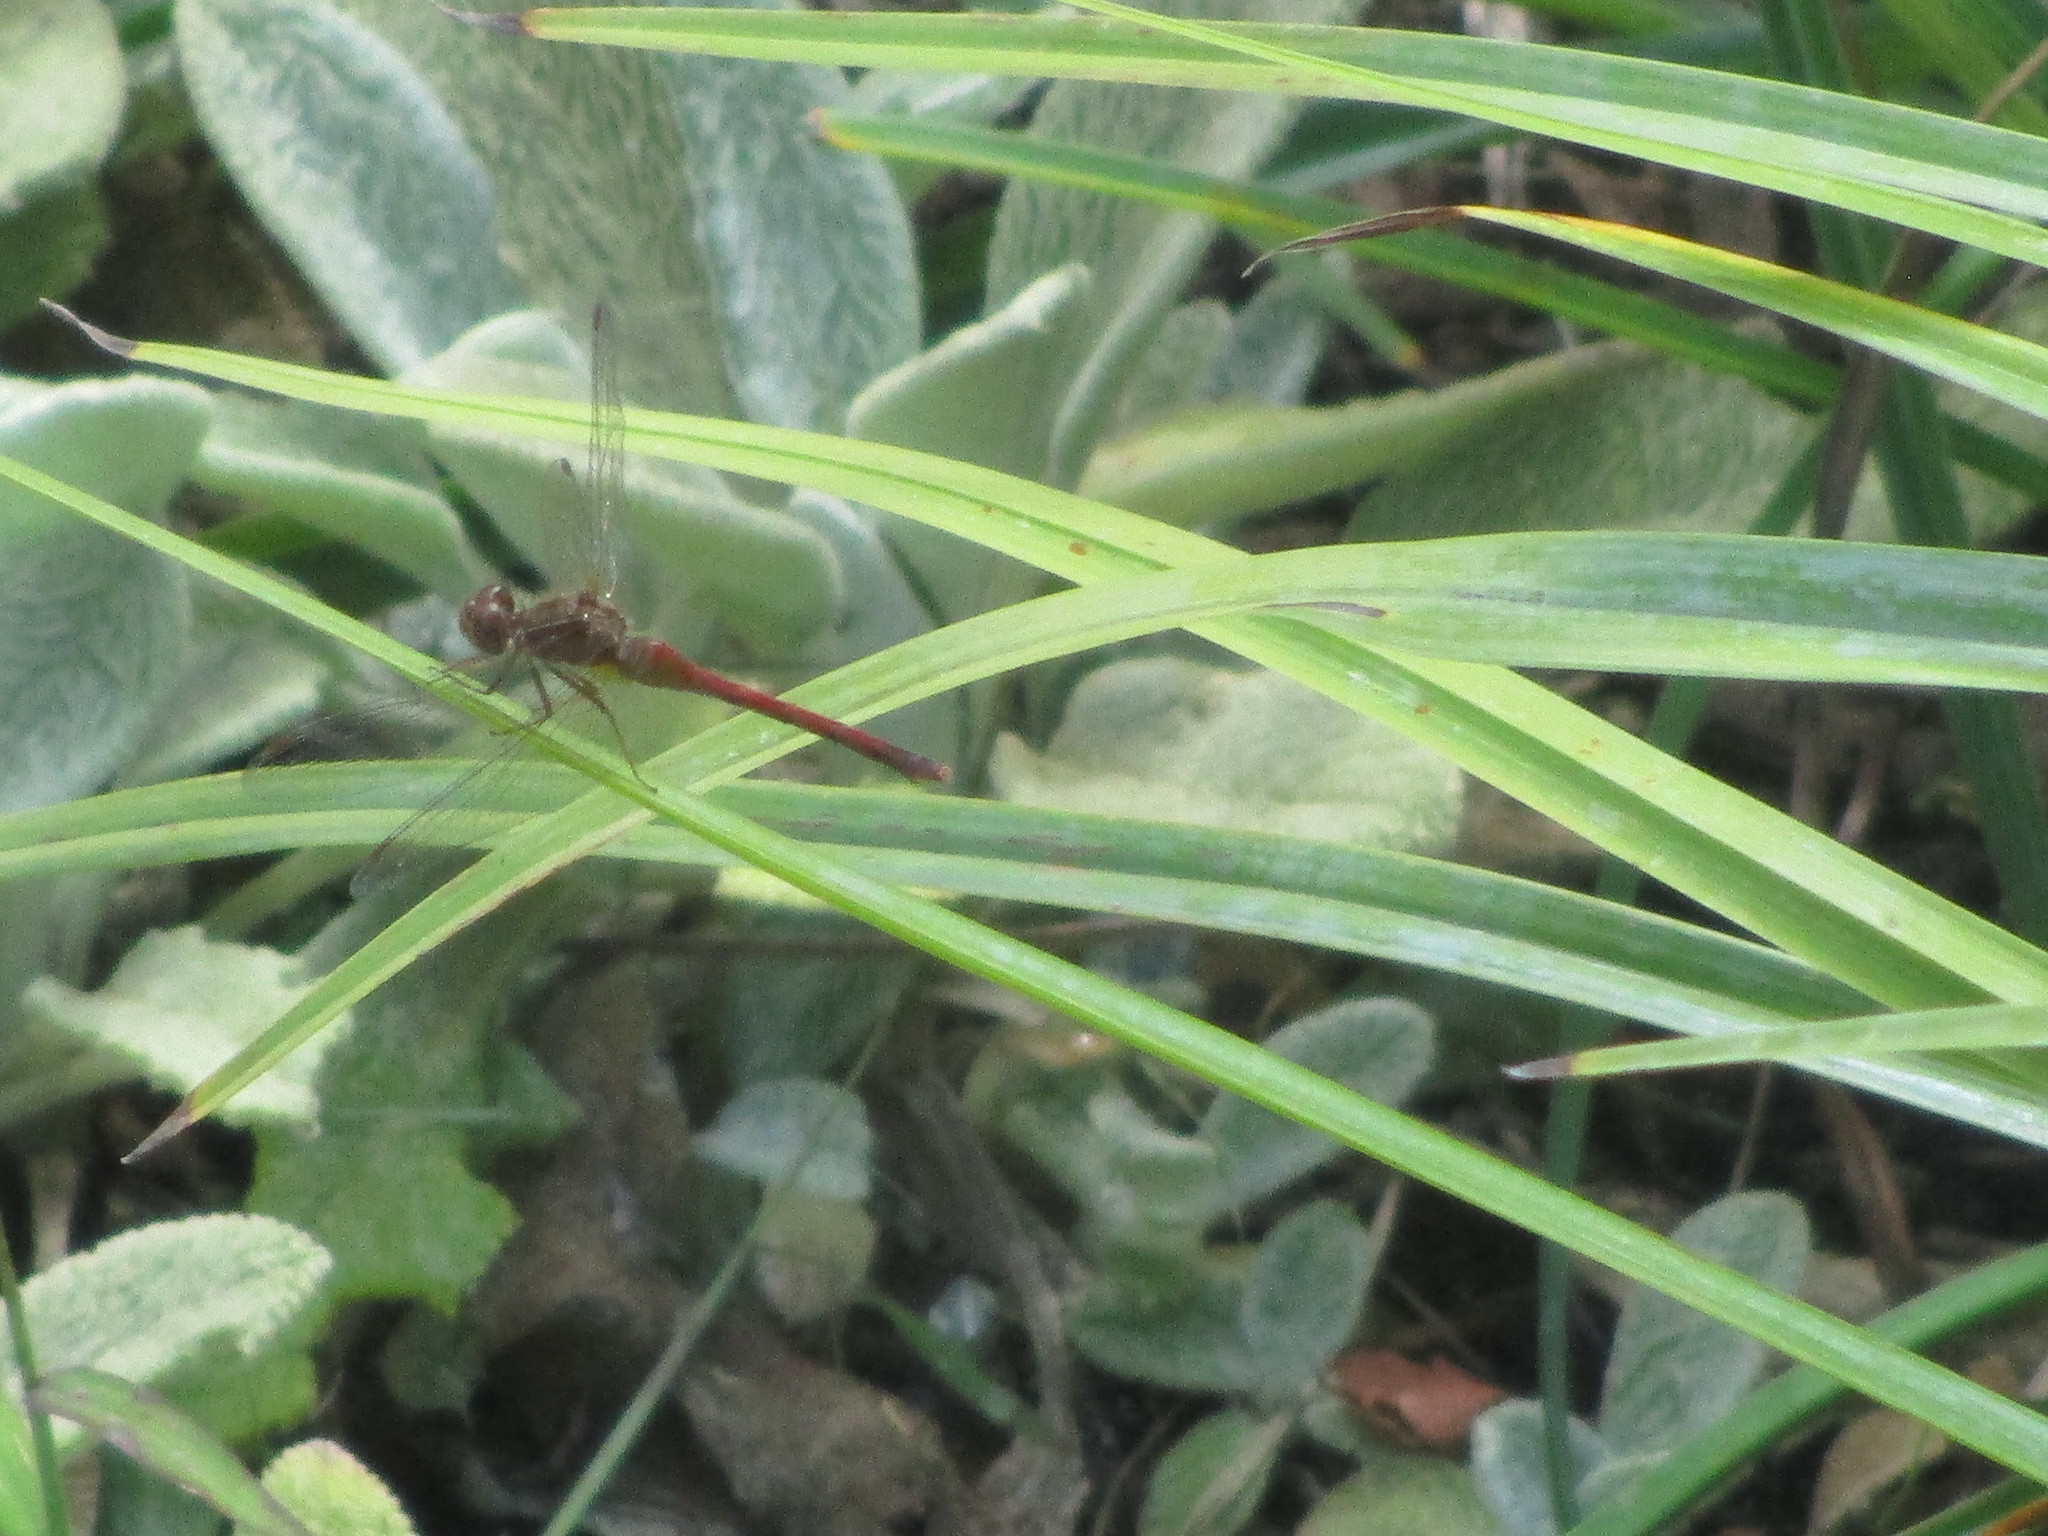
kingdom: Animalia
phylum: Arthropoda
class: Insecta
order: Odonata
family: Libellulidae
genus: Sympetrum
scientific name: Sympetrum vicinum
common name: Autumn meadowhawk
